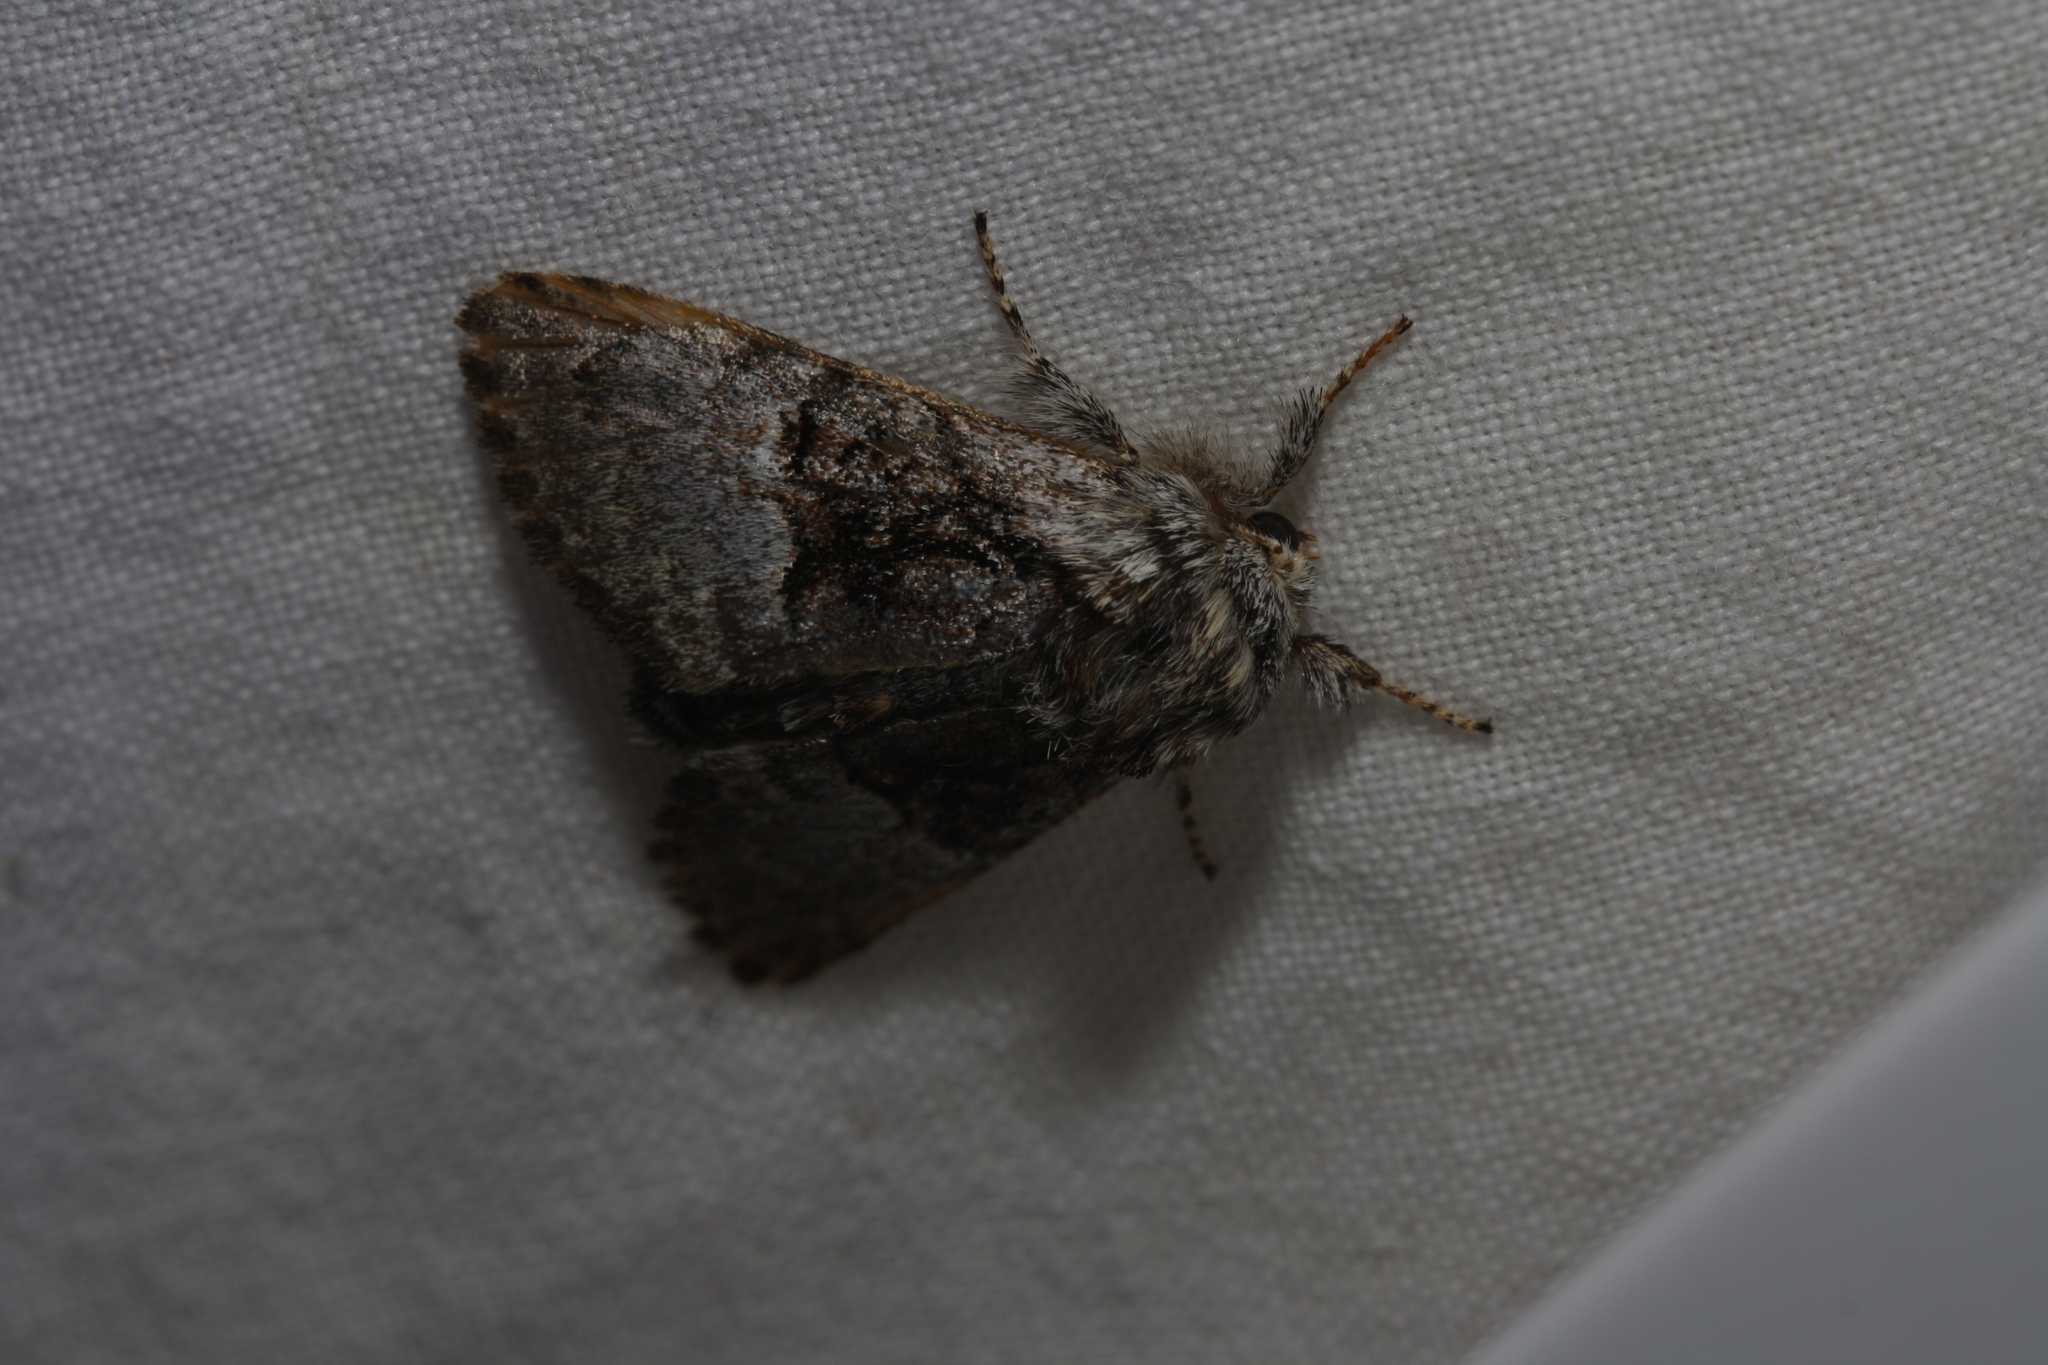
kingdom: Animalia
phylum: Arthropoda
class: Insecta
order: Lepidoptera
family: Noctuidae
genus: Colocasia
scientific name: Colocasia coryli
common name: Nut-tree tussock
